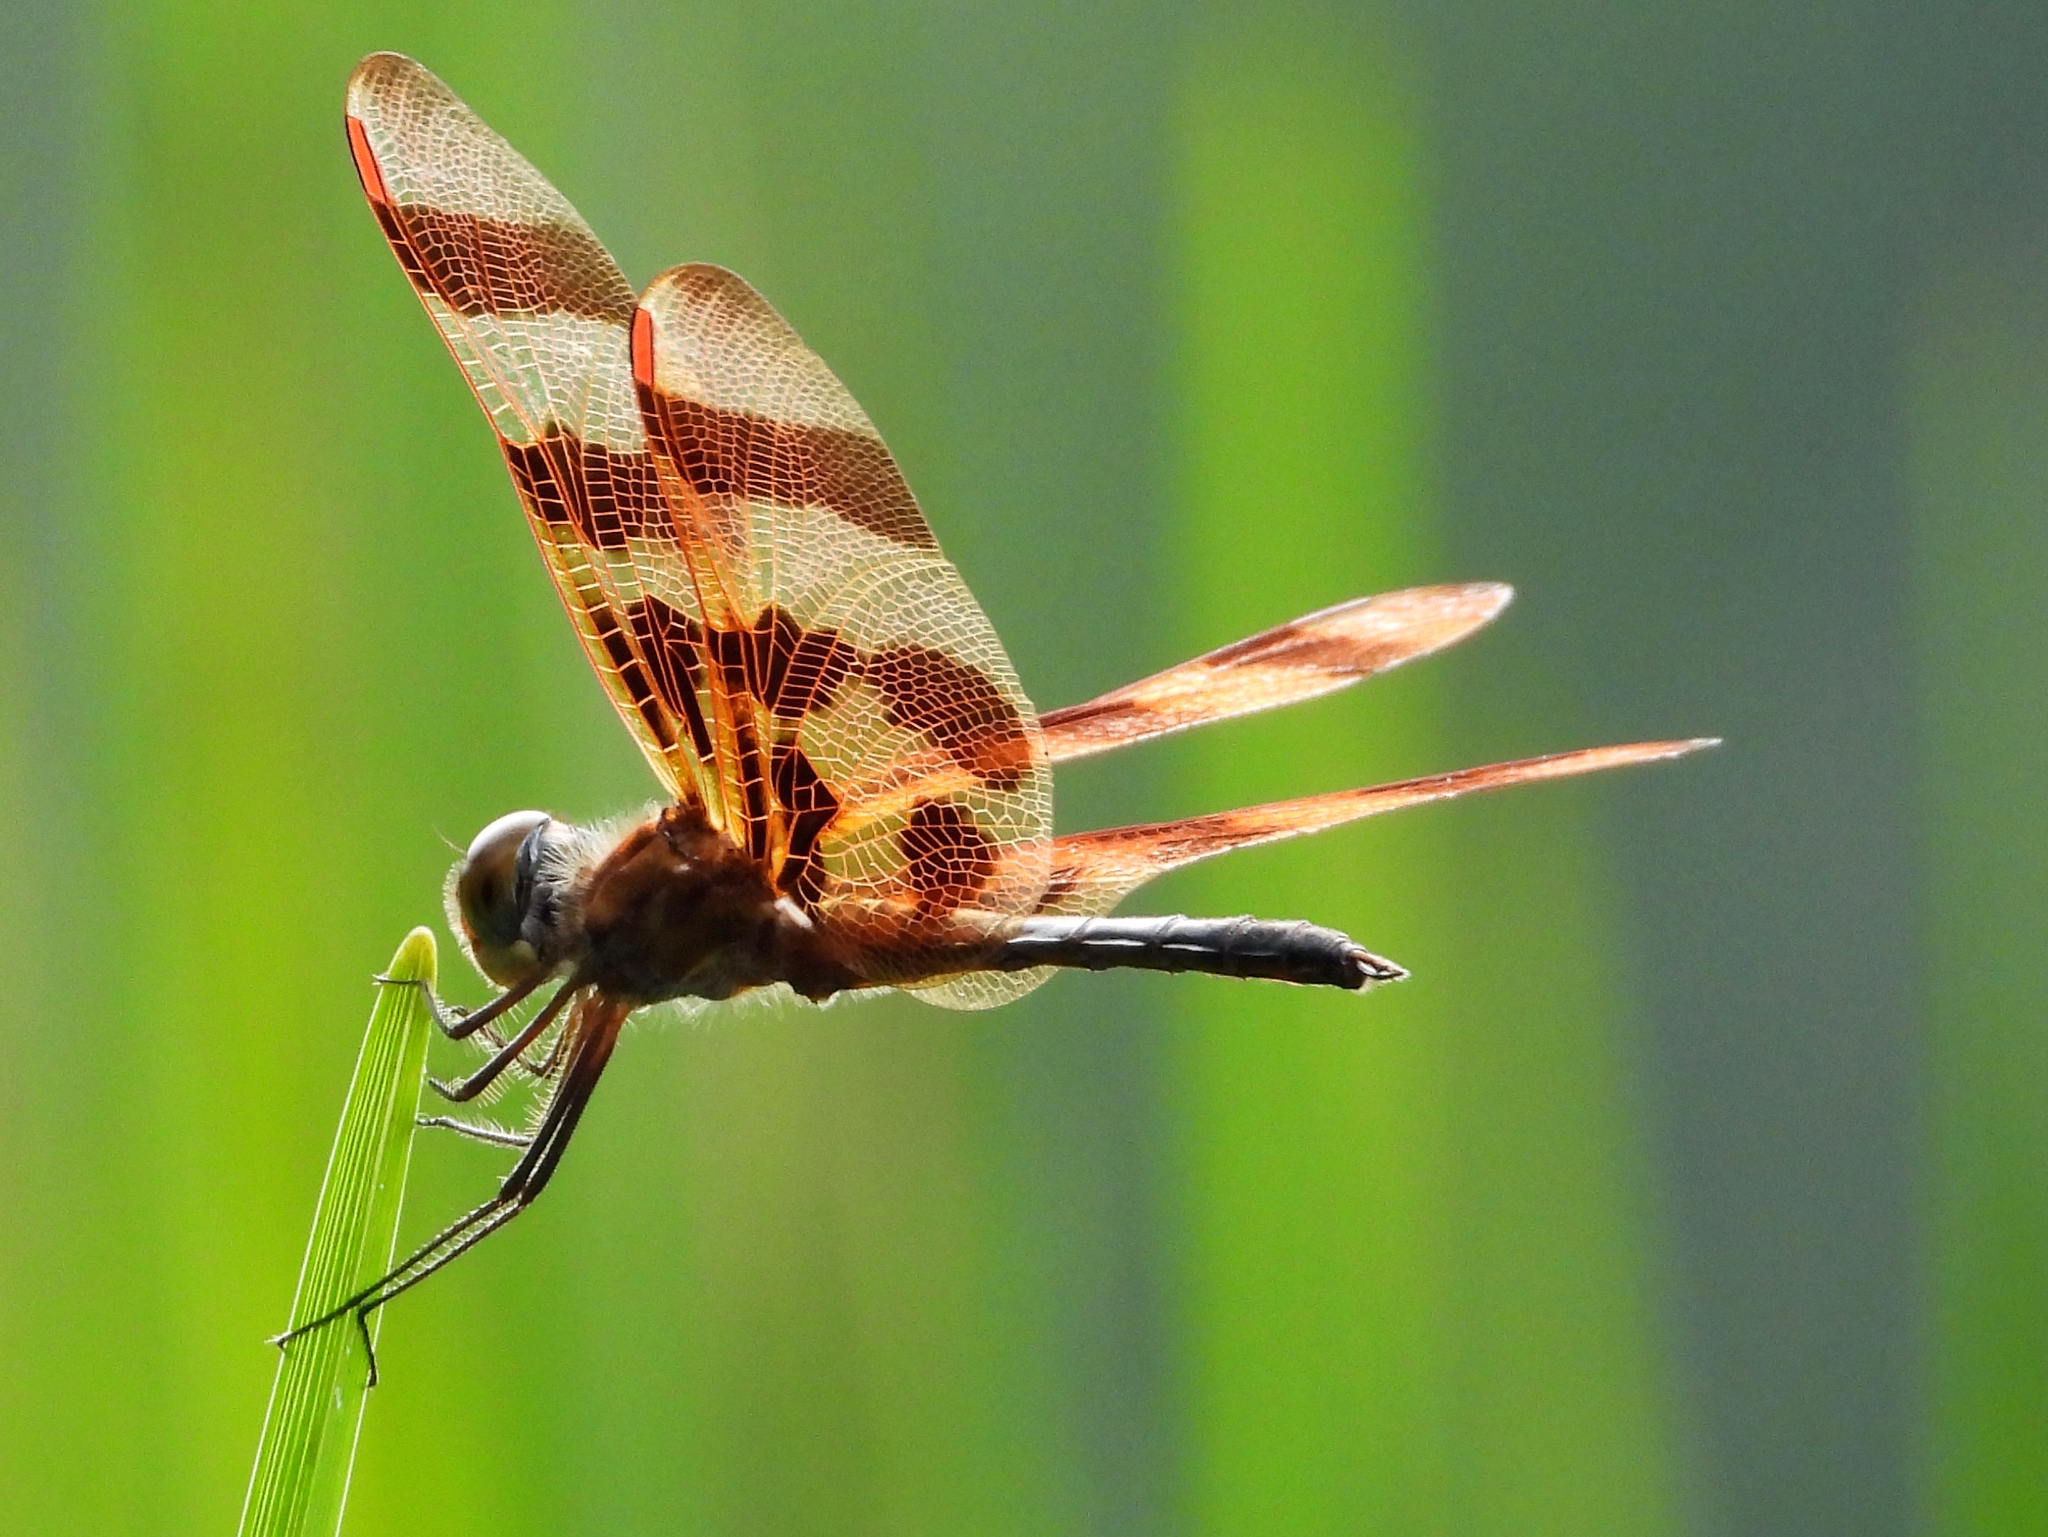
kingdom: Animalia
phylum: Arthropoda
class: Insecta
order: Odonata
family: Libellulidae
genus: Celithemis
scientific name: Celithemis eponina
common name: Halloween pennant
